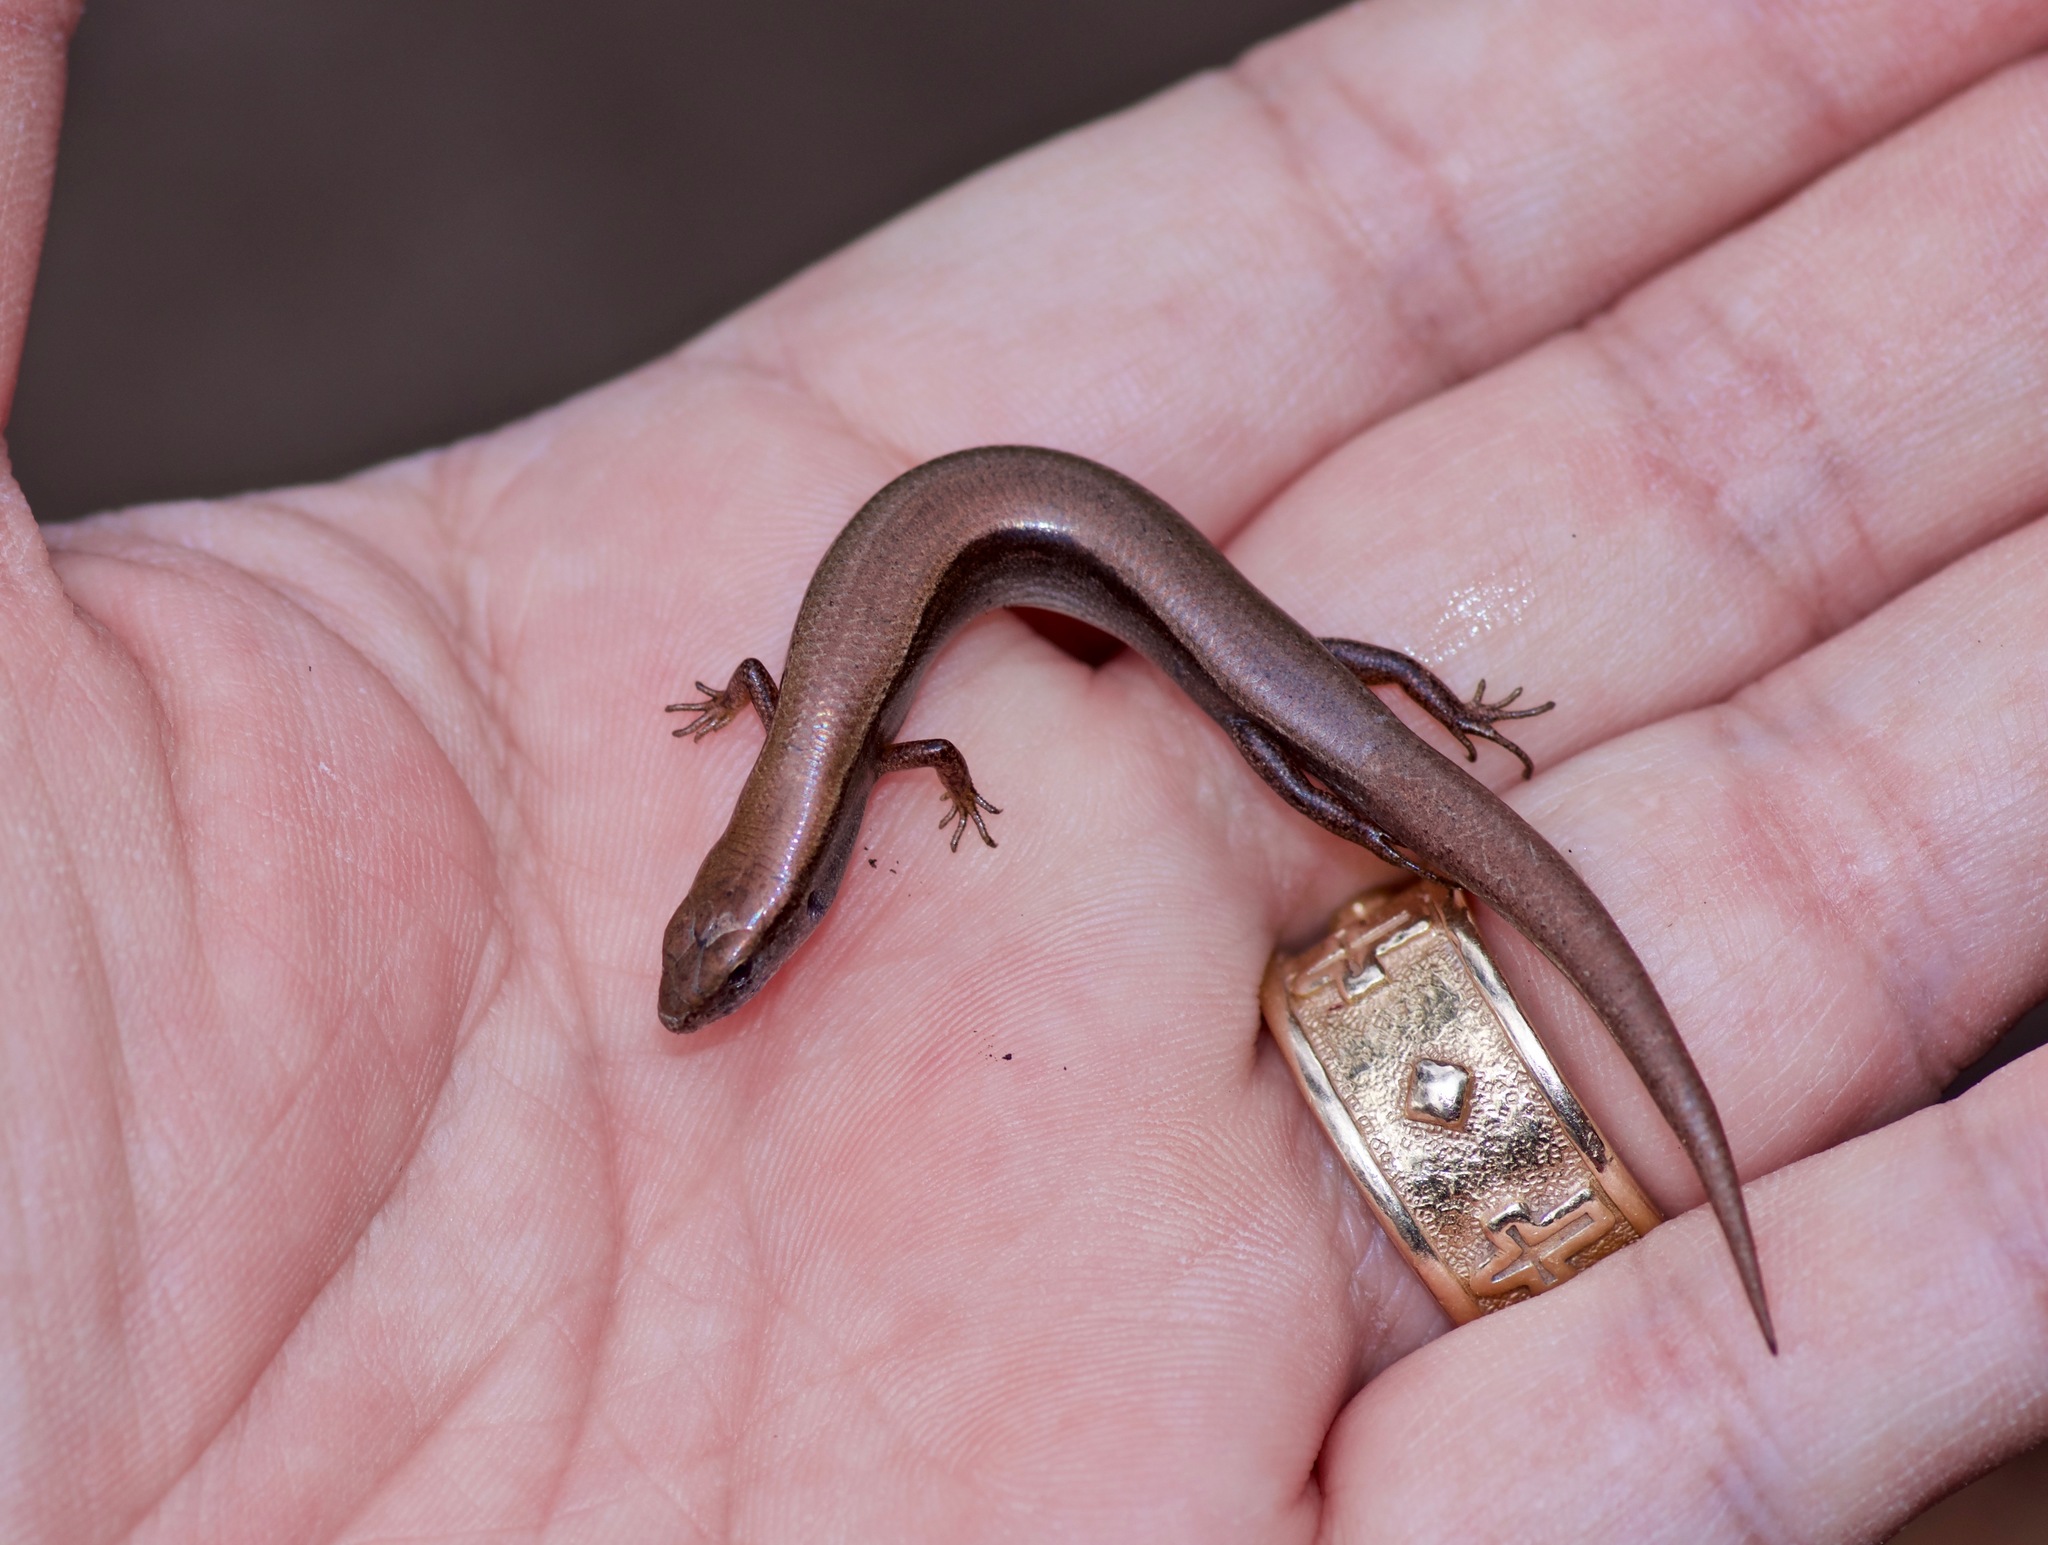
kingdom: Animalia
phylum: Chordata
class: Squamata
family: Scincidae
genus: Scincella
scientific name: Scincella lateralis
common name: Ground skink
